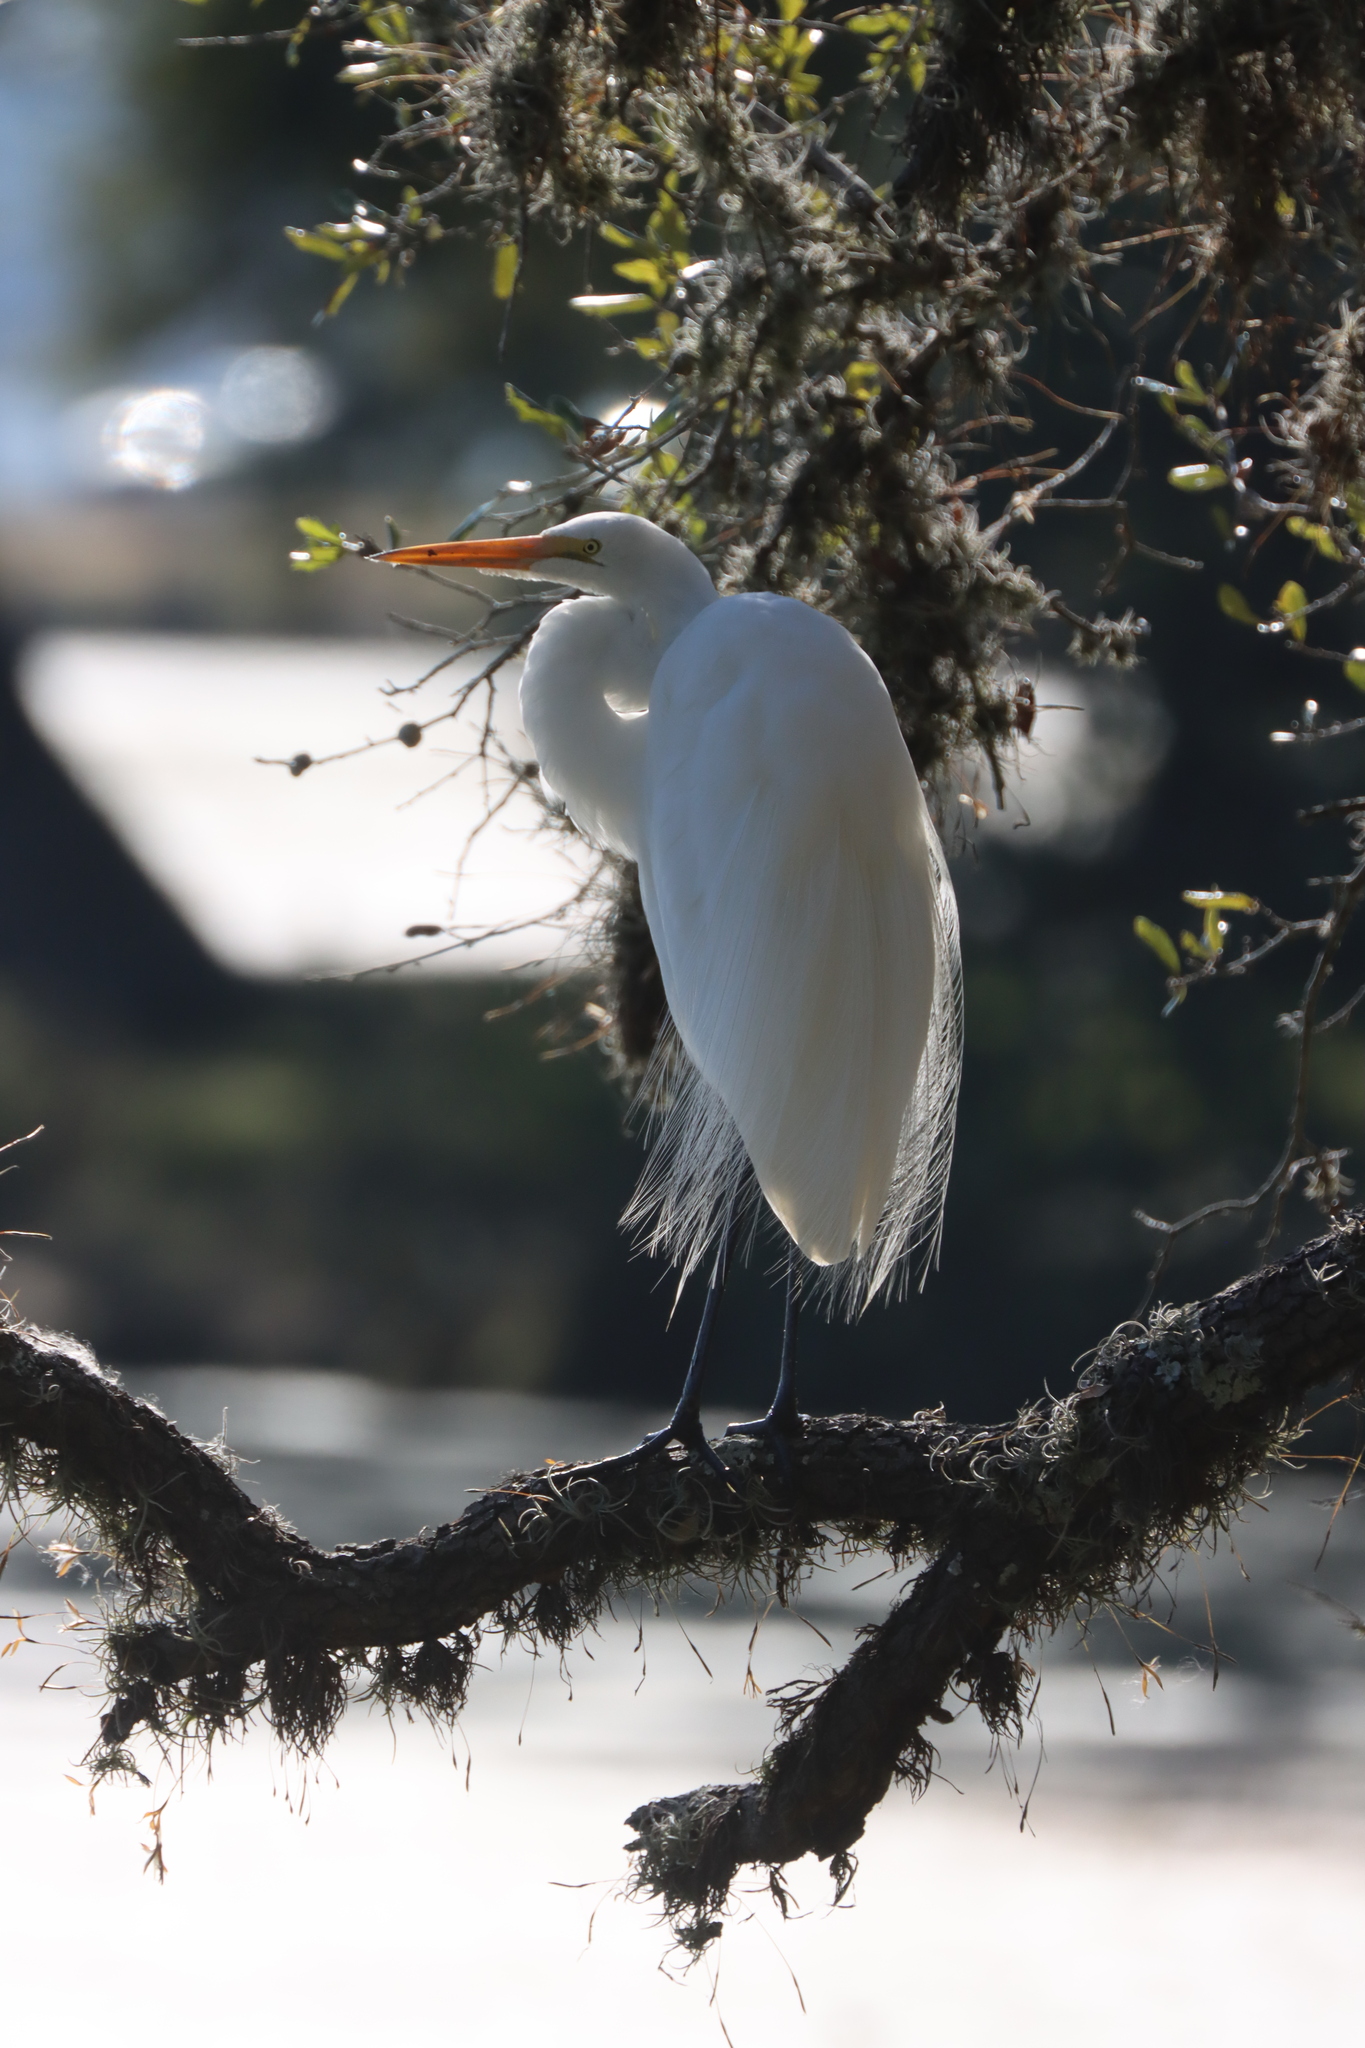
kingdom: Animalia
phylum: Chordata
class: Aves
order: Pelecaniformes
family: Ardeidae
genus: Ardea
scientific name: Ardea alba
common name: Great egret
